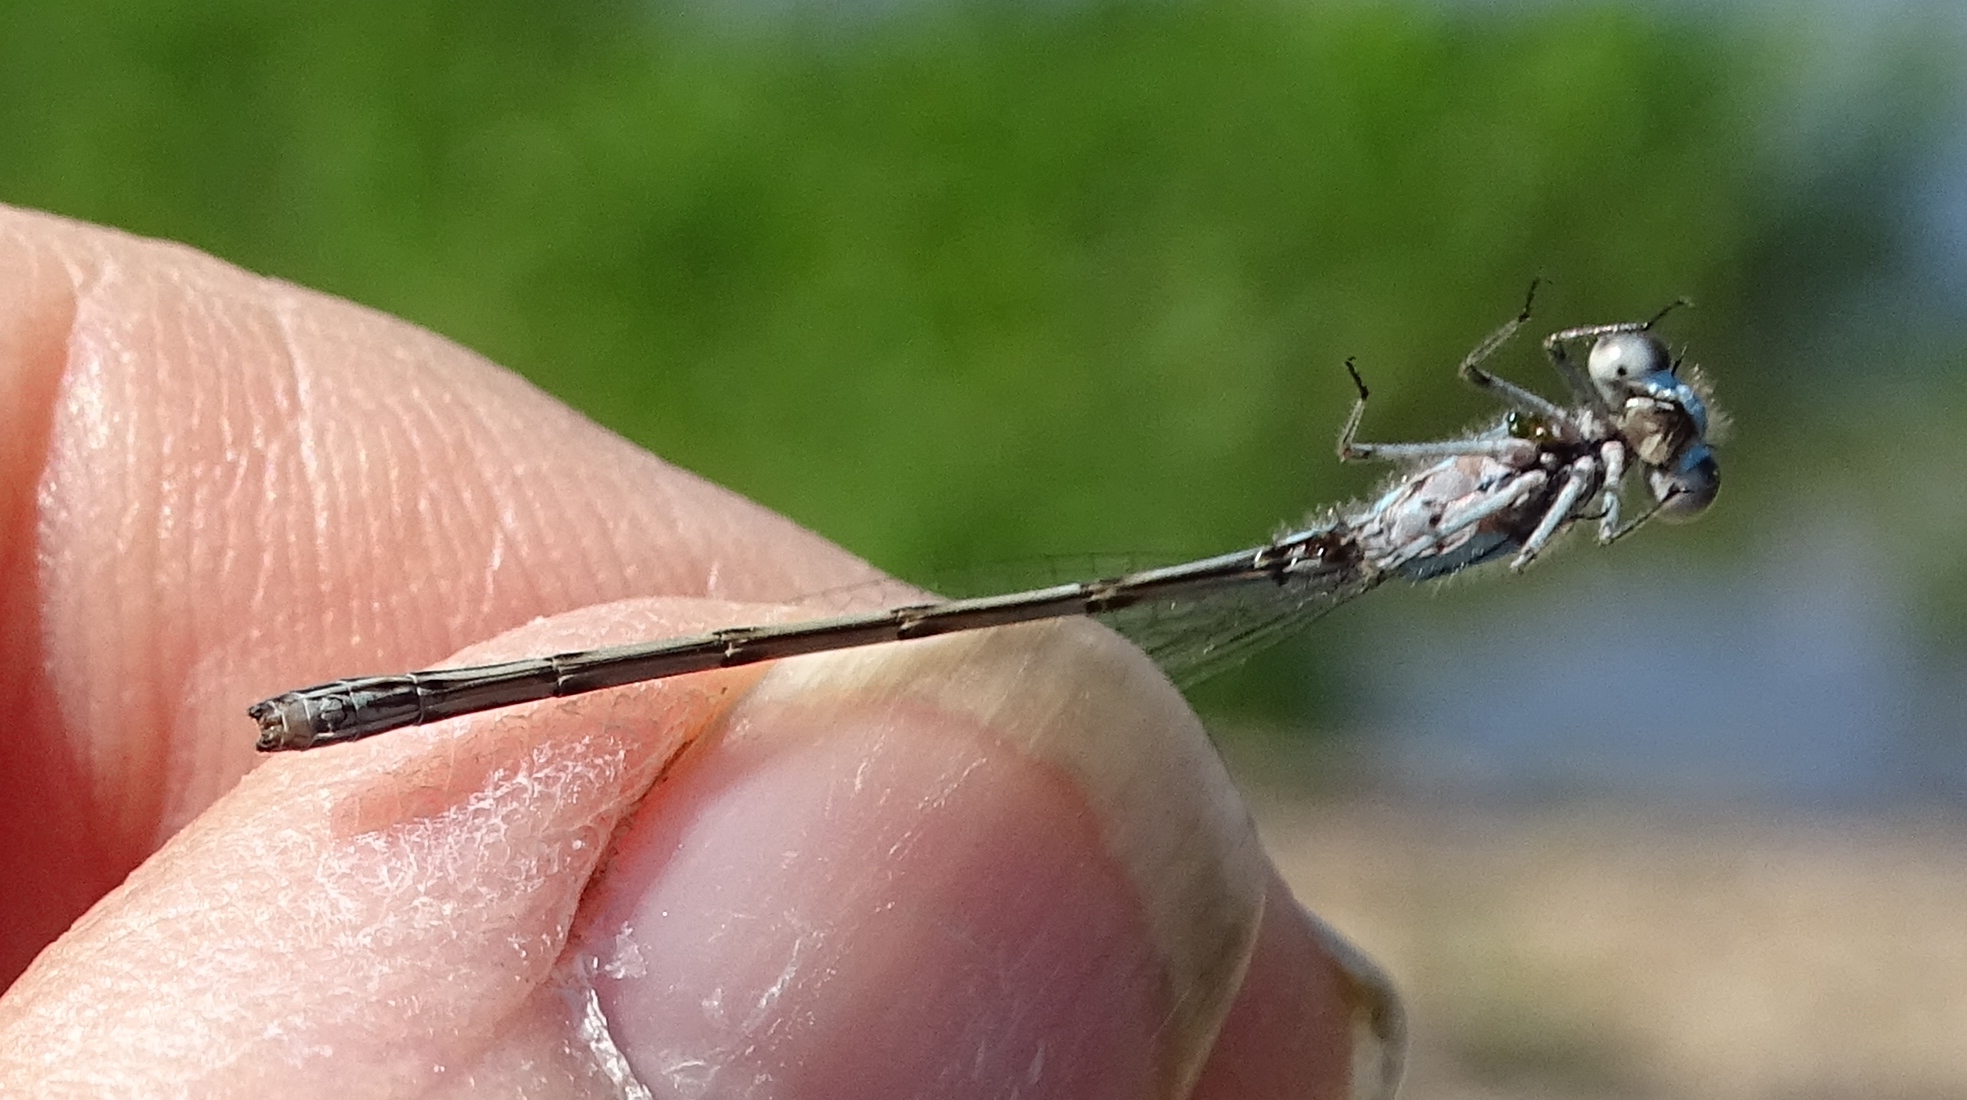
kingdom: Animalia
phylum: Arthropoda
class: Insecta
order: Odonata
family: Coenagrionidae
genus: Enallagma
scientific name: Enallagma geminatum
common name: Skimming bluet
